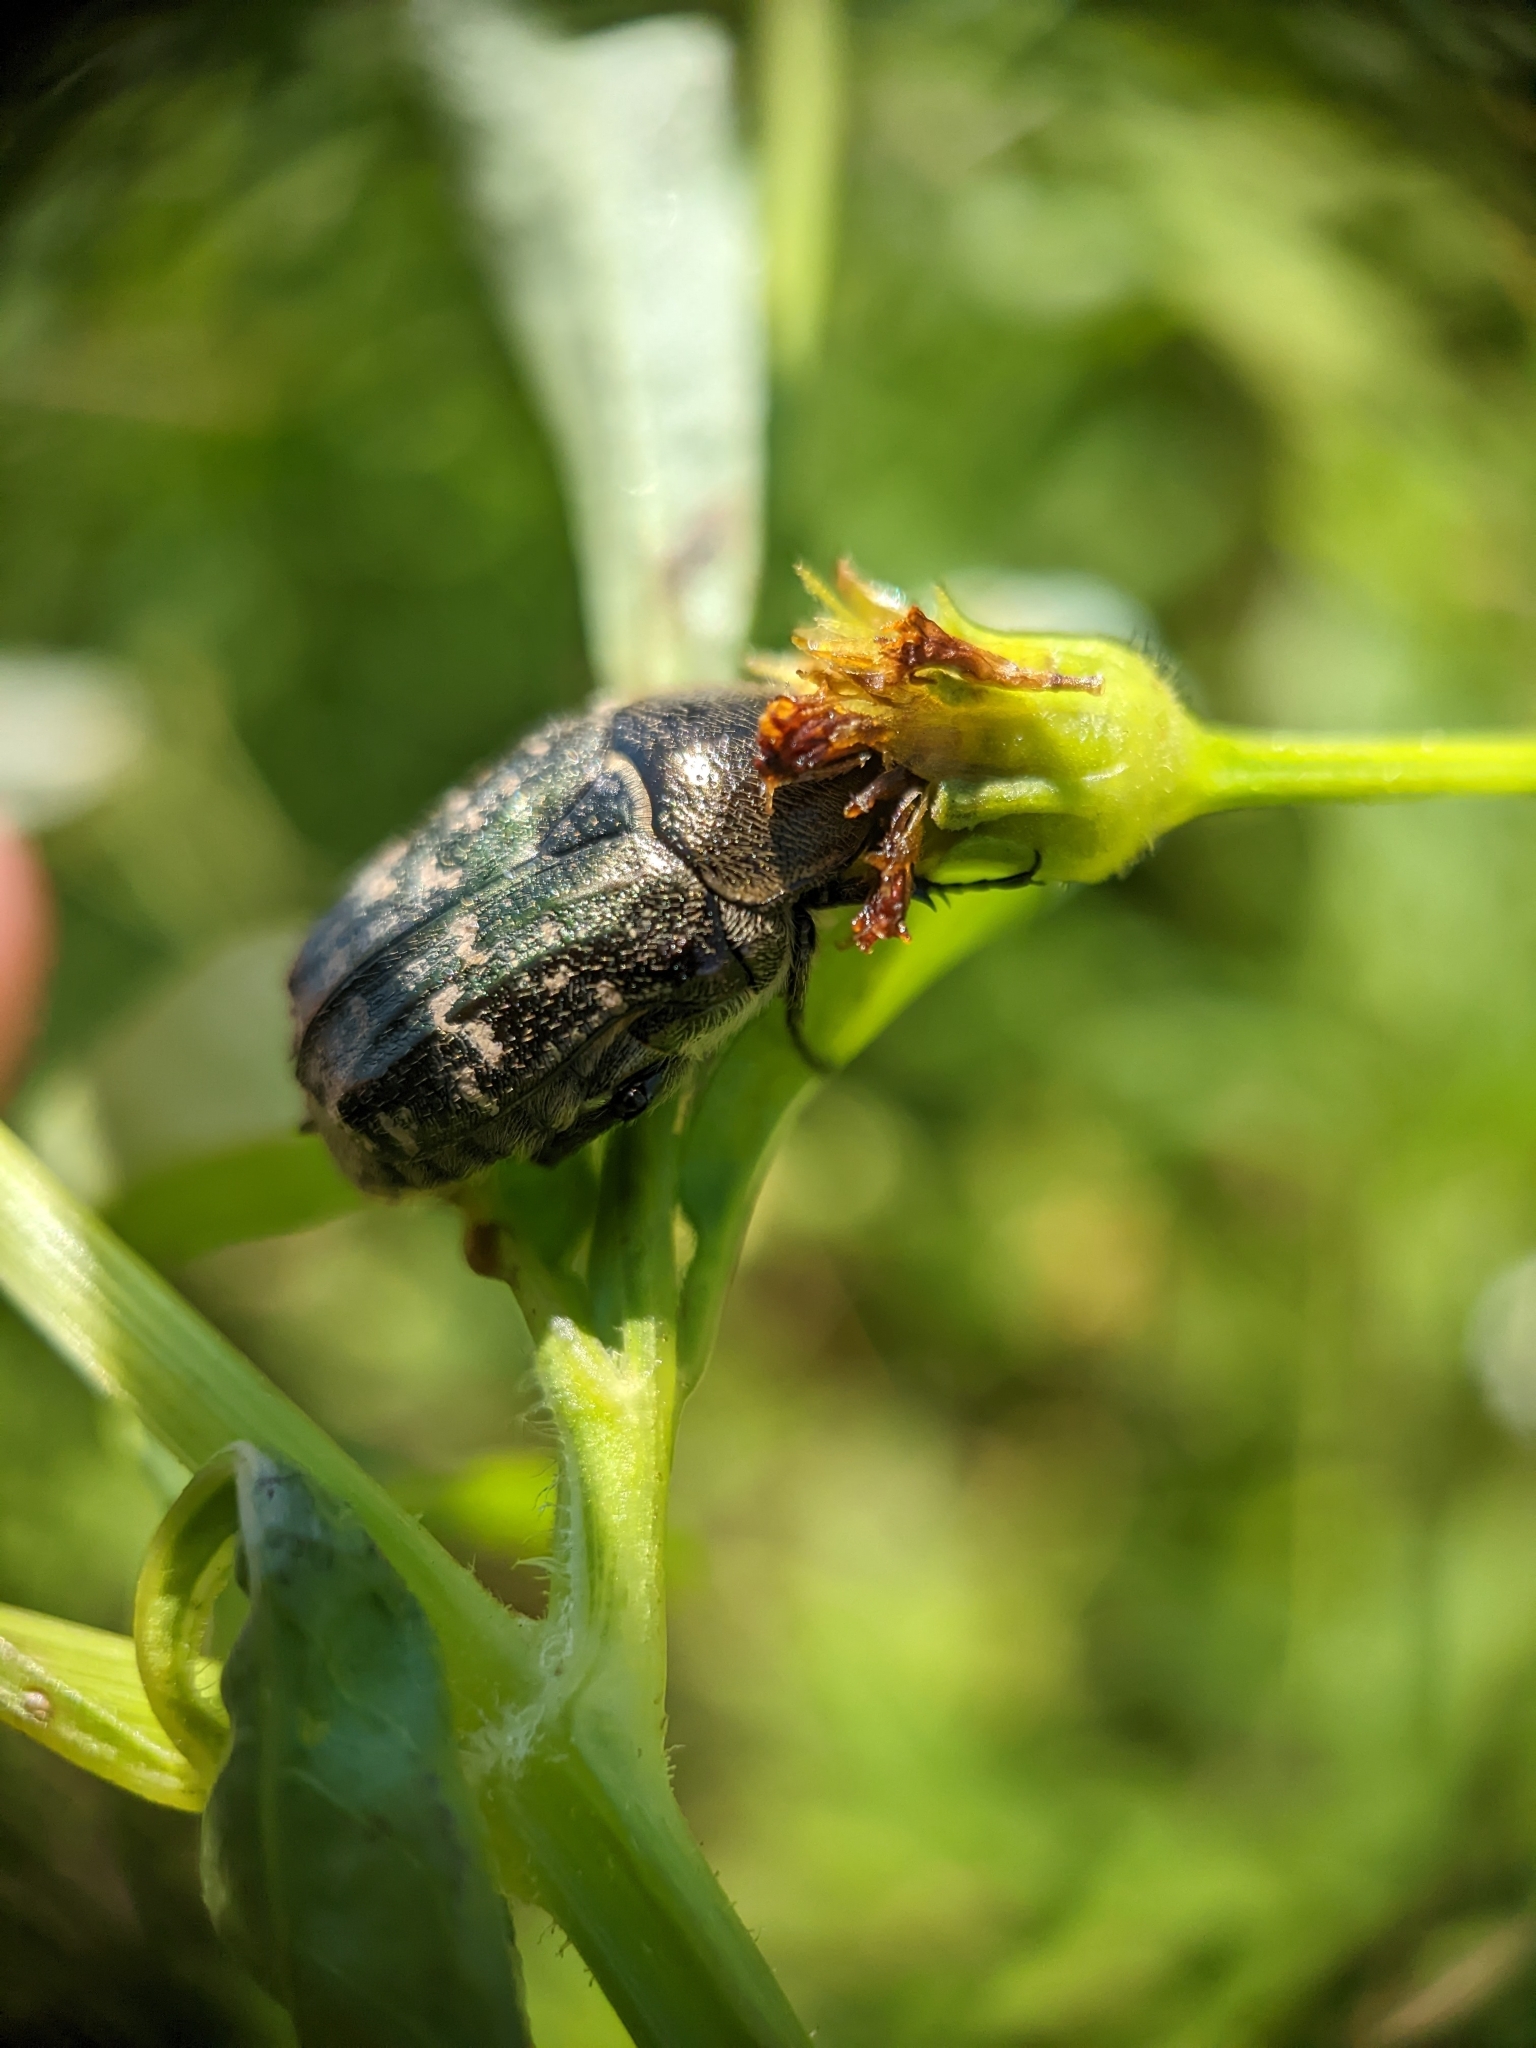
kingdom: Animalia
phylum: Arthropoda
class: Insecta
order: Coleoptera
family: Scarabaeidae
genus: Euphoria
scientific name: Euphoria sepulcralis
